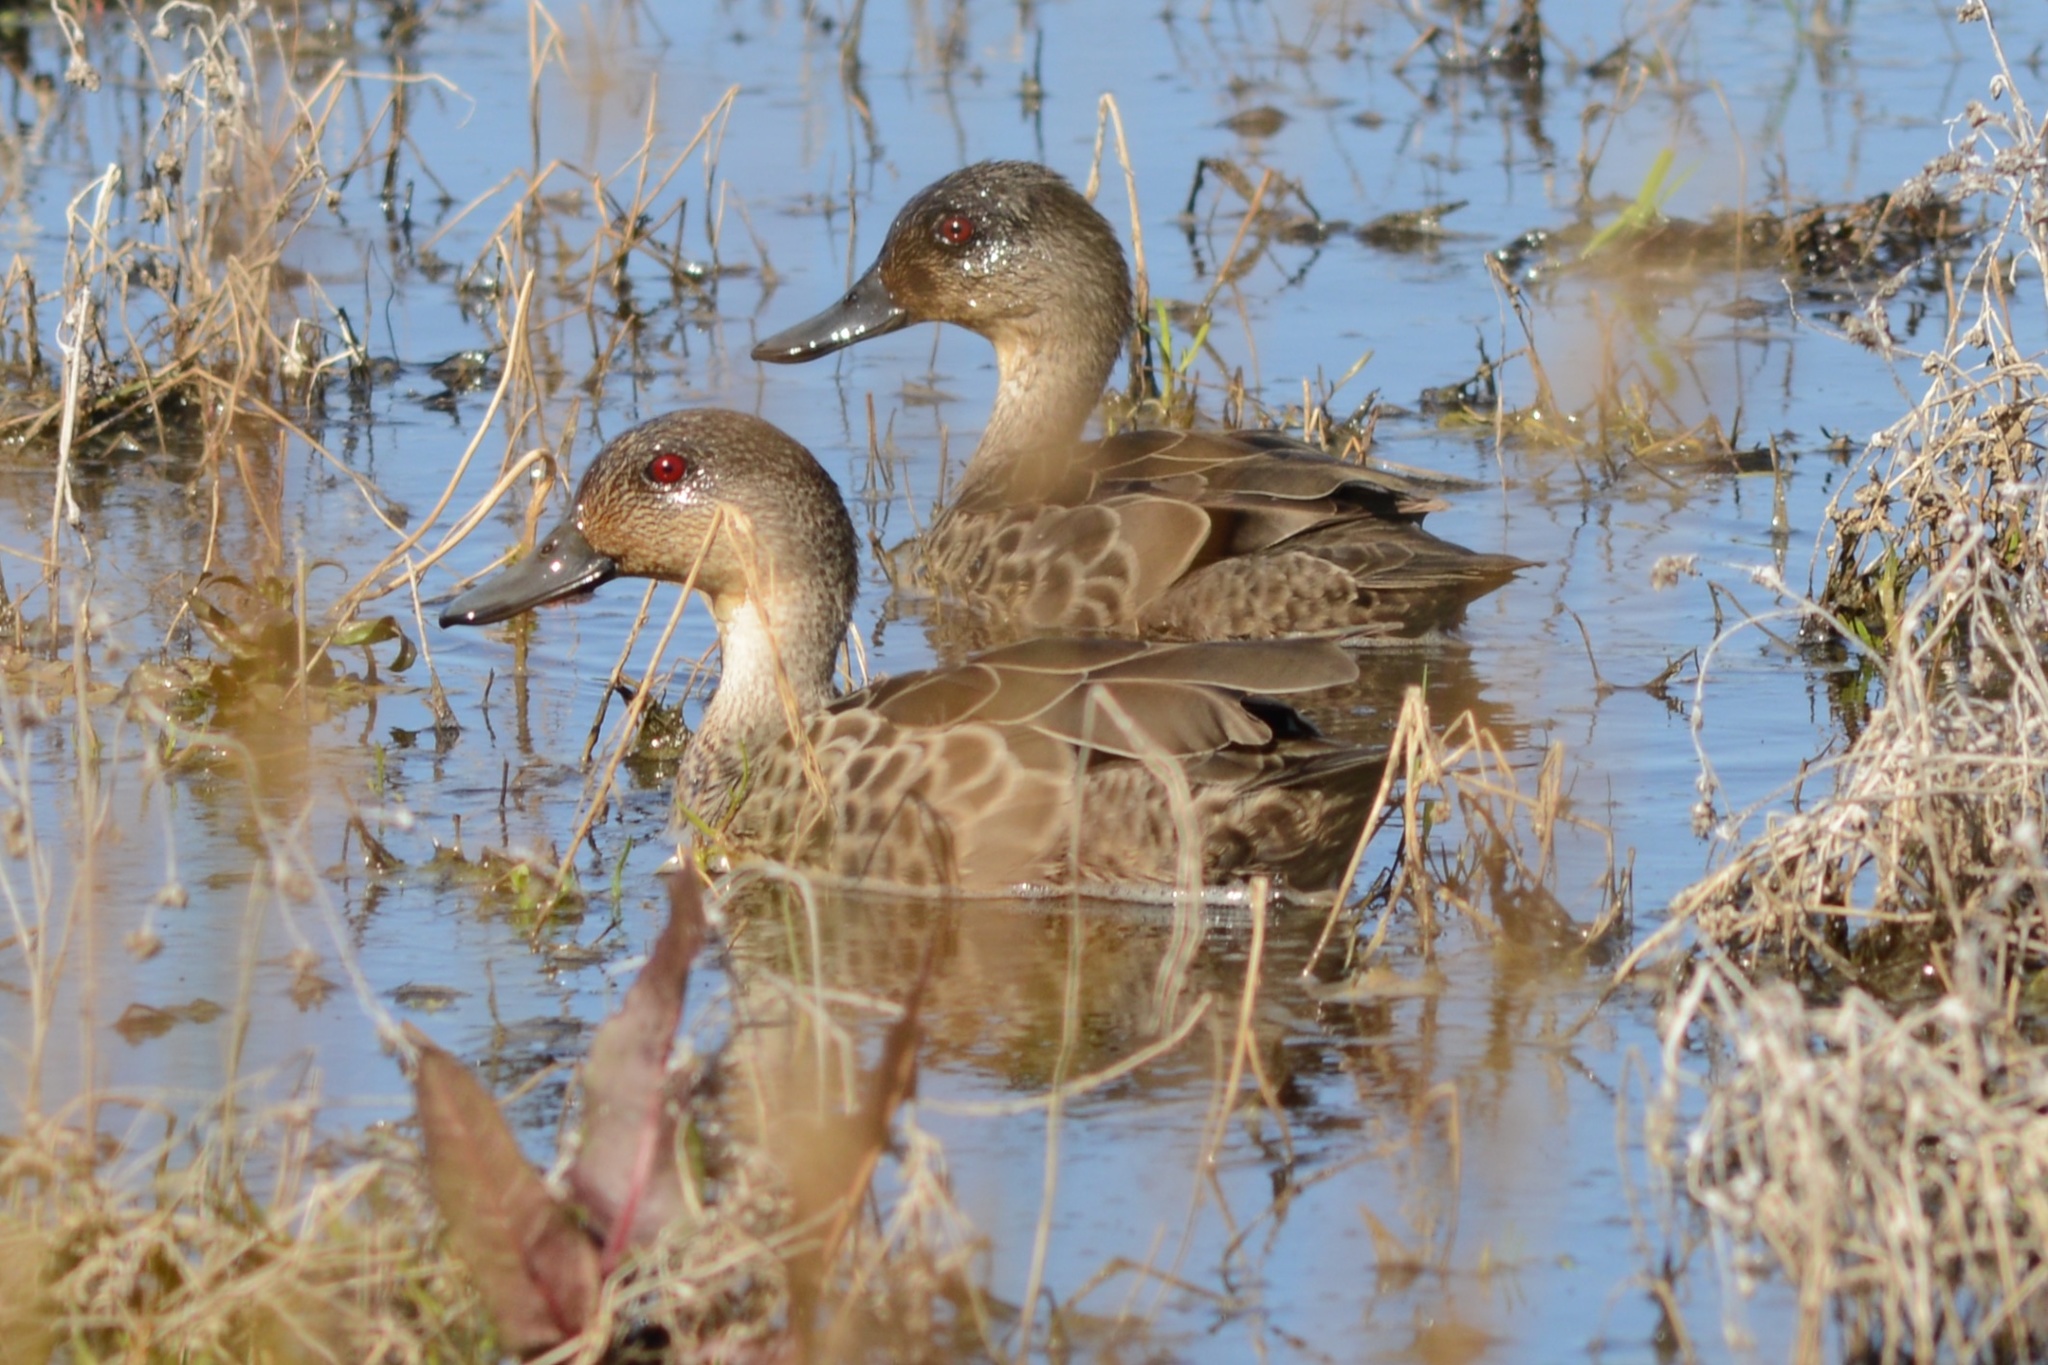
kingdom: Animalia
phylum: Chordata
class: Aves
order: Anseriformes
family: Anatidae
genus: Anas
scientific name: Anas gracilis
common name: Grey teal
